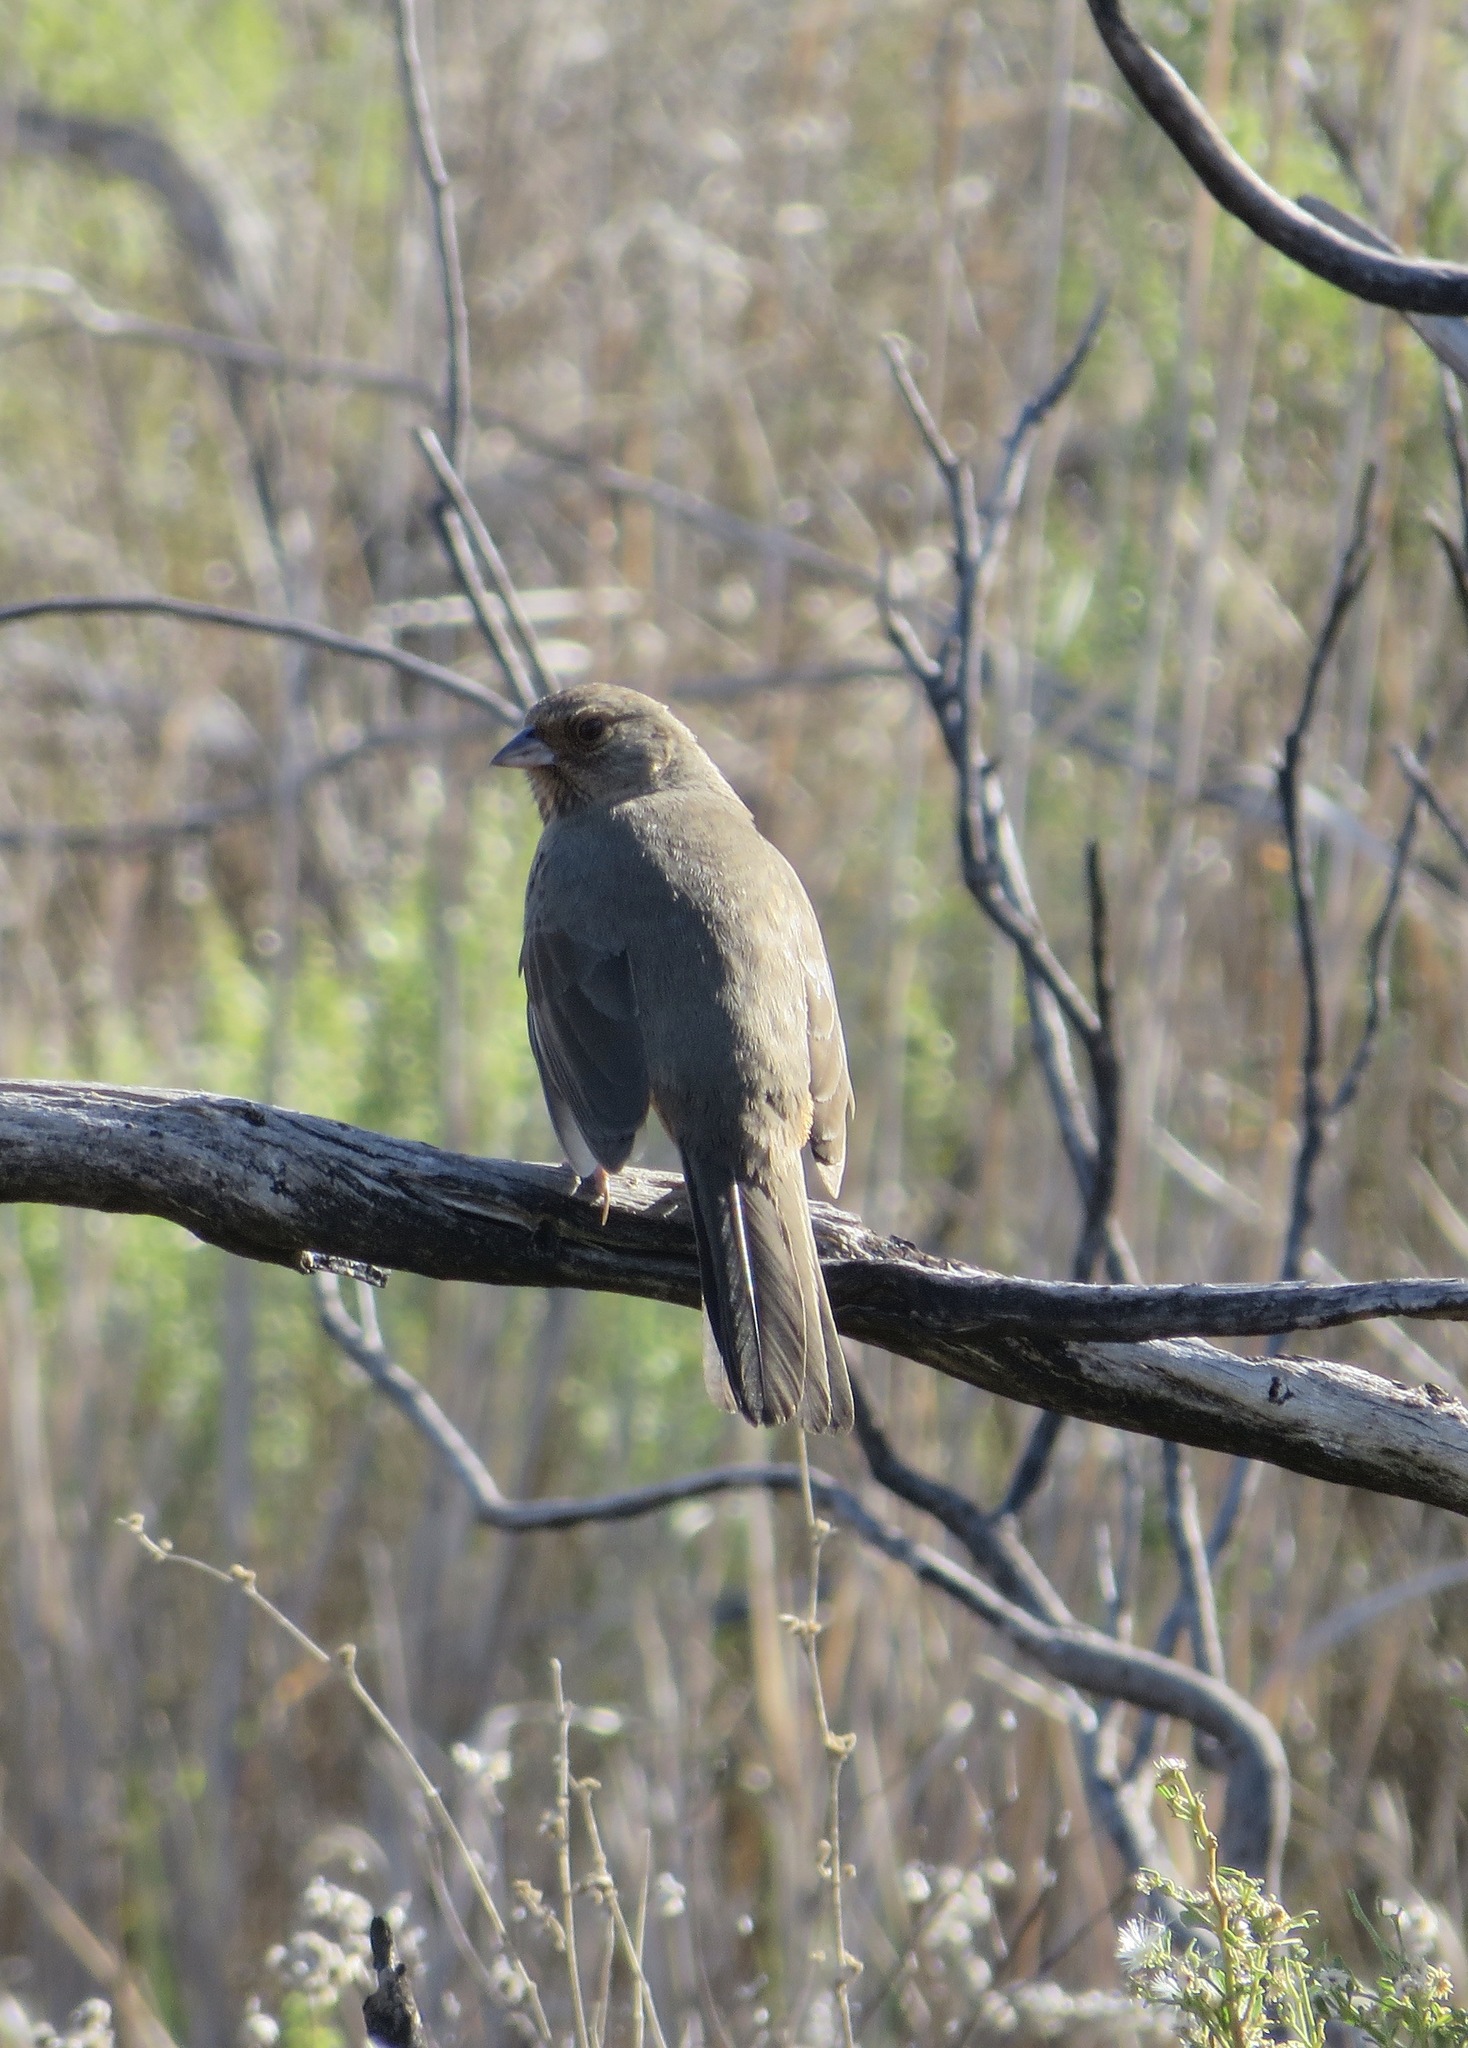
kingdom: Animalia
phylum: Chordata
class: Aves
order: Passeriformes
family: Passerellidae
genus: Melozone
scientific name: Melozone crissalis
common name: California towhee
